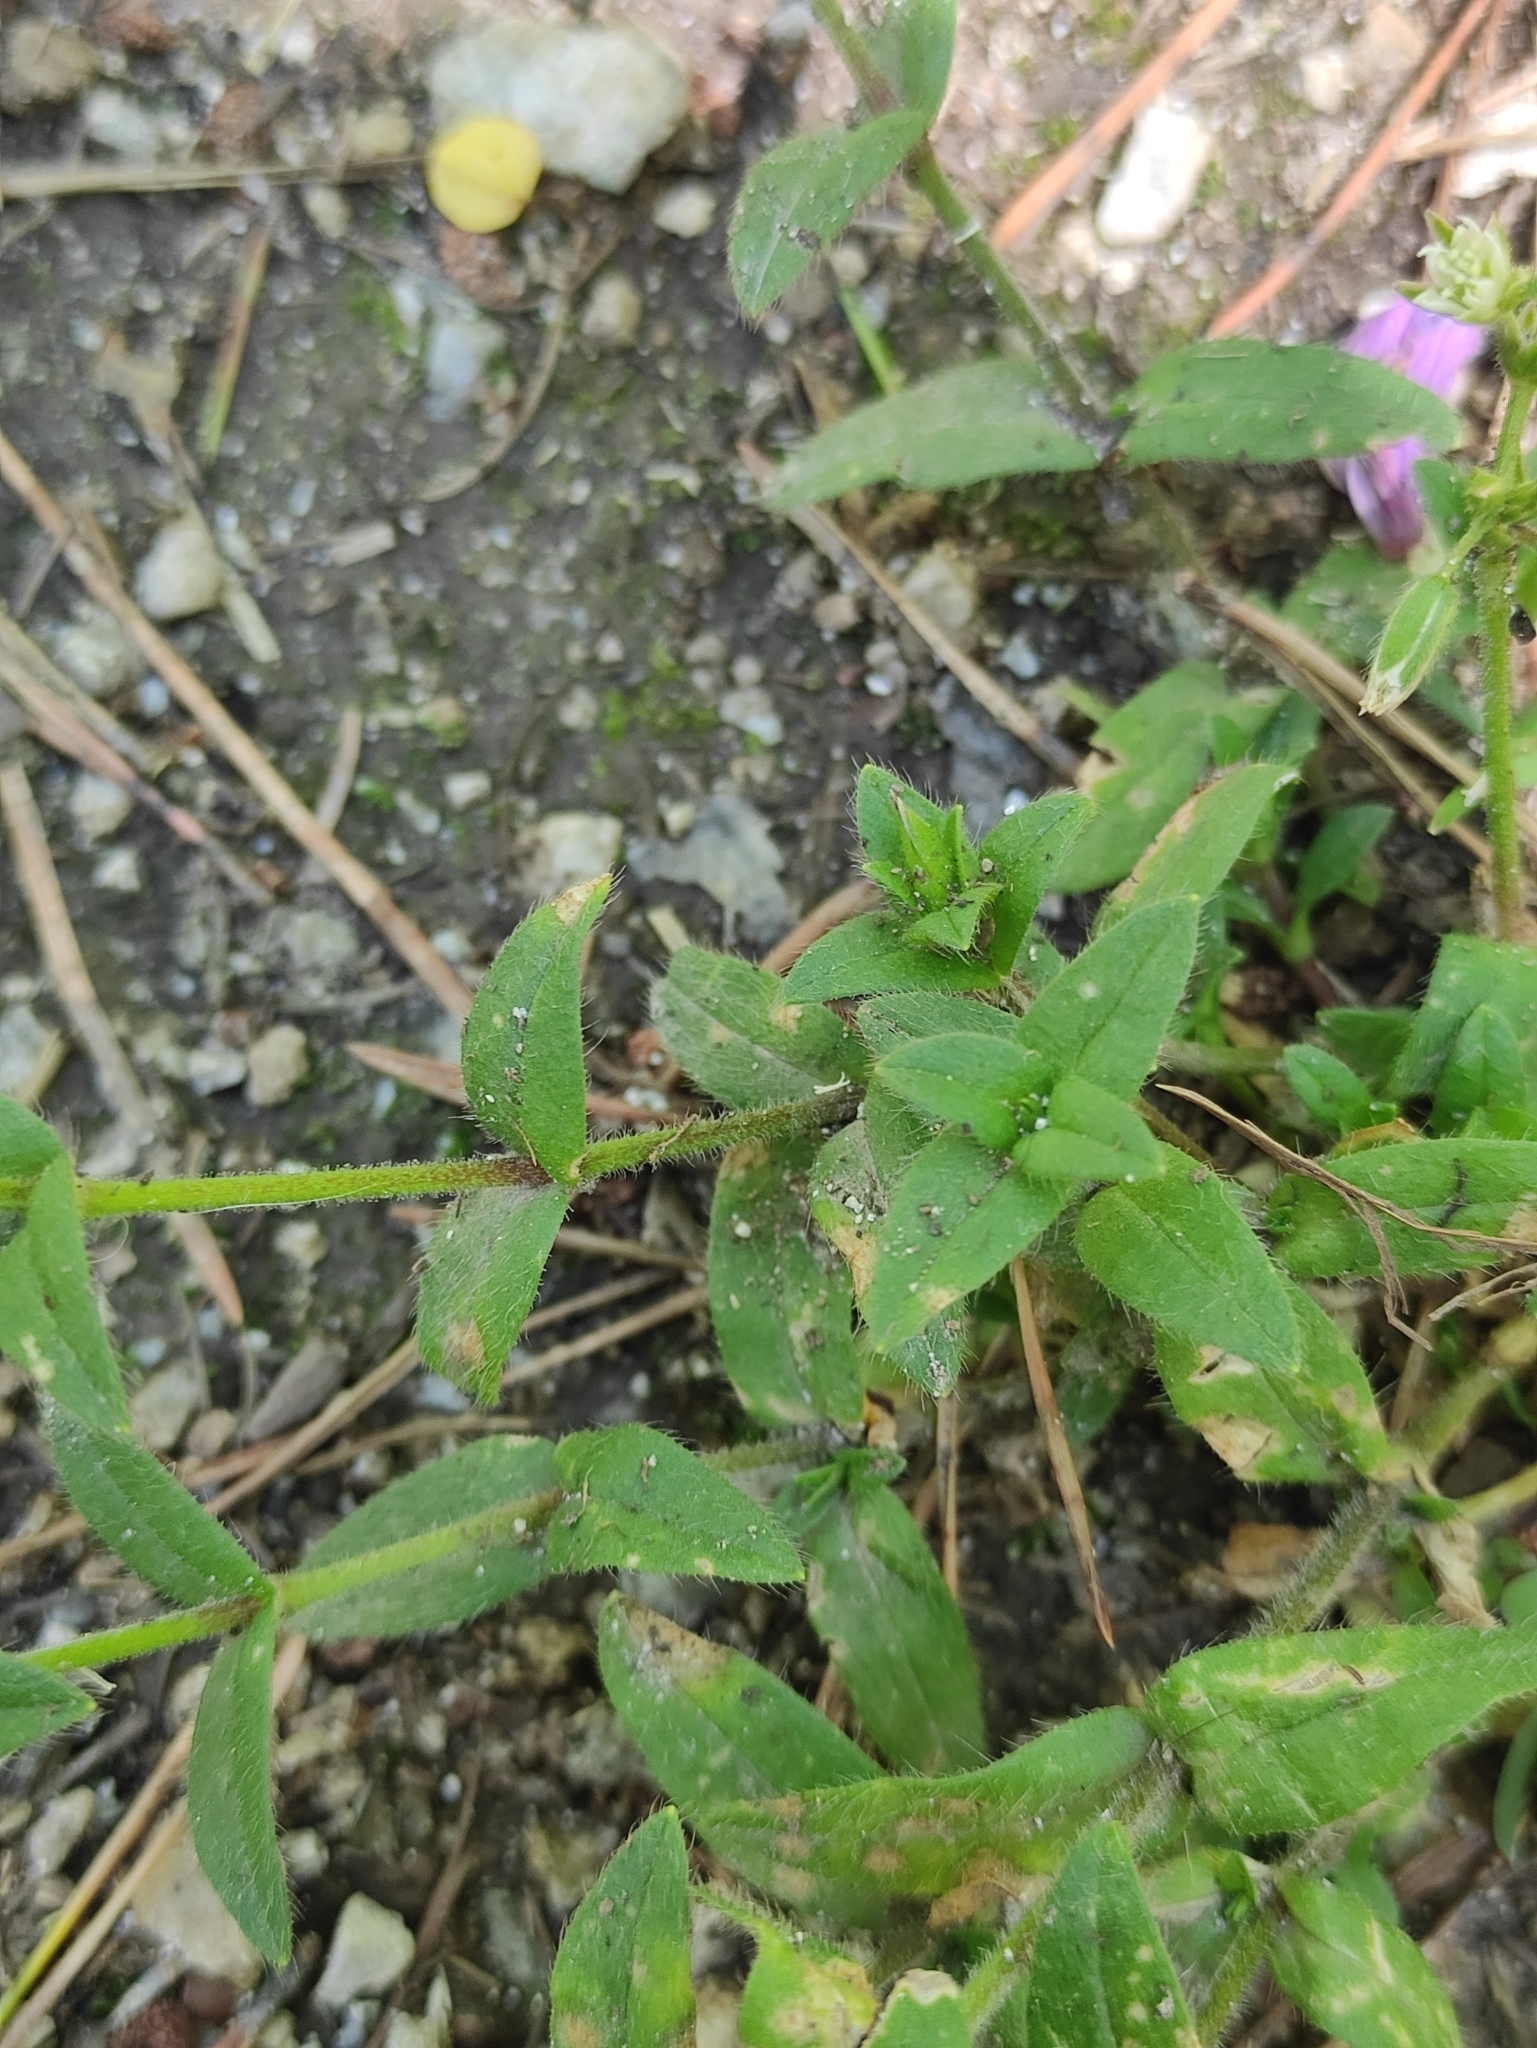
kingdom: Plantae
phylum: Tracheophyta
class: Magnoliopsida
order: Caryophyllales
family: Caryophyllaceae
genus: Cerastium
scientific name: Cerastium holosteoides
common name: Big chickweed
